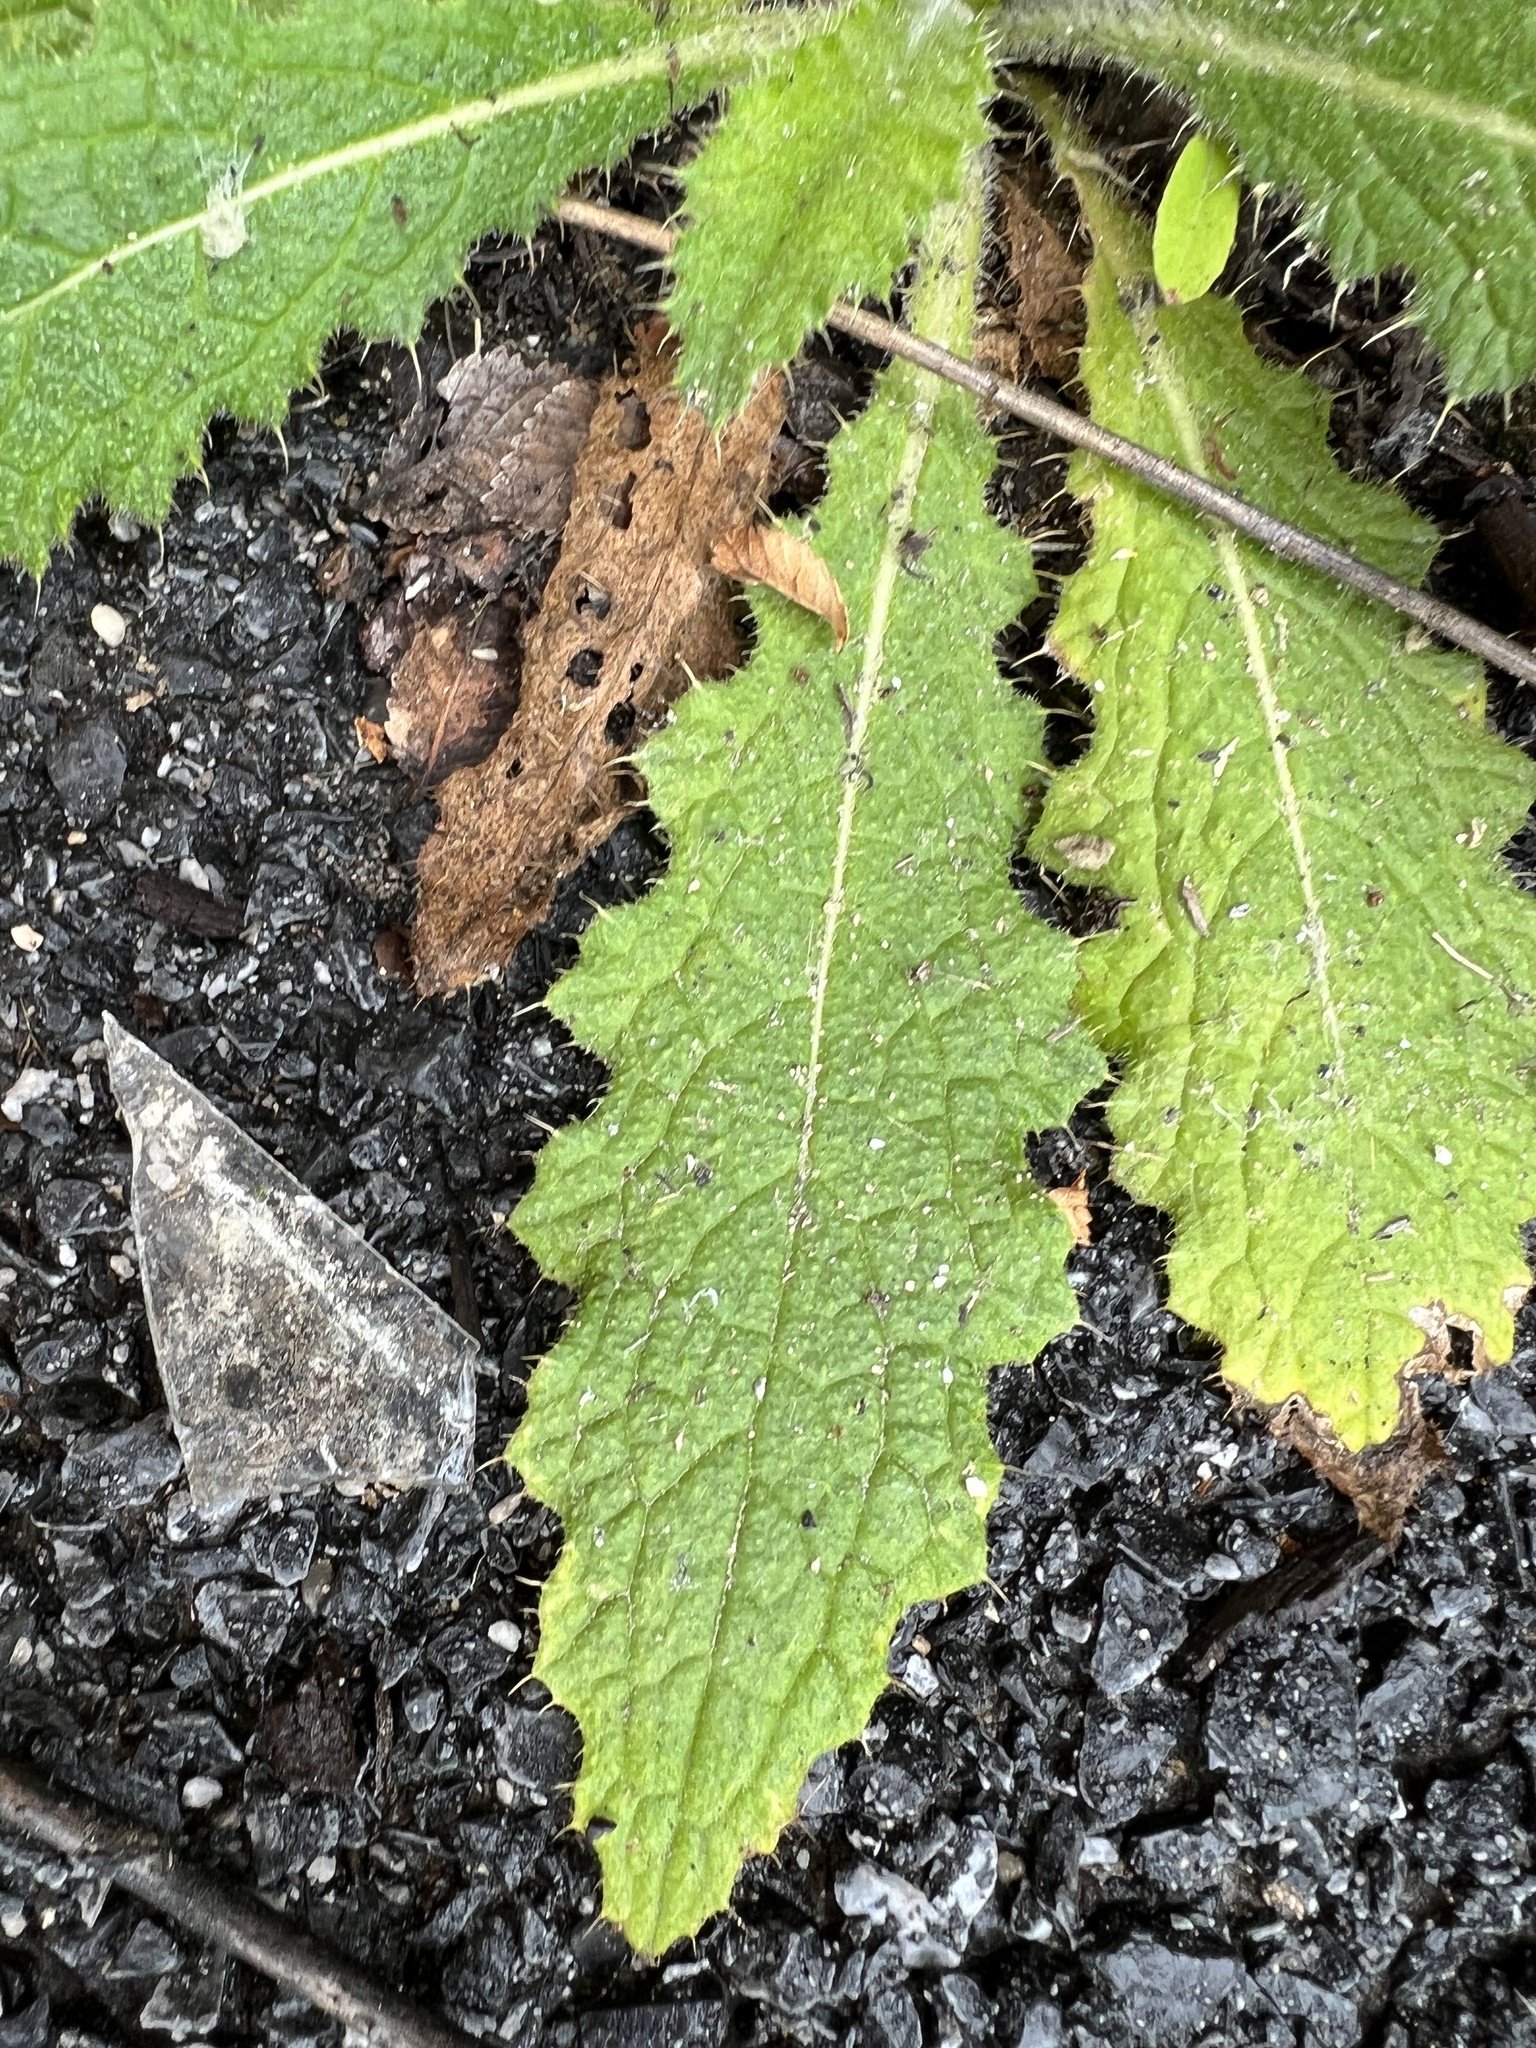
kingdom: Plantae
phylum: Tracheophyta
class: Magnoliopsida
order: Asterales
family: Asteraceae
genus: Cirsium
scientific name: Cirsium vulgare
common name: Bull thistle
